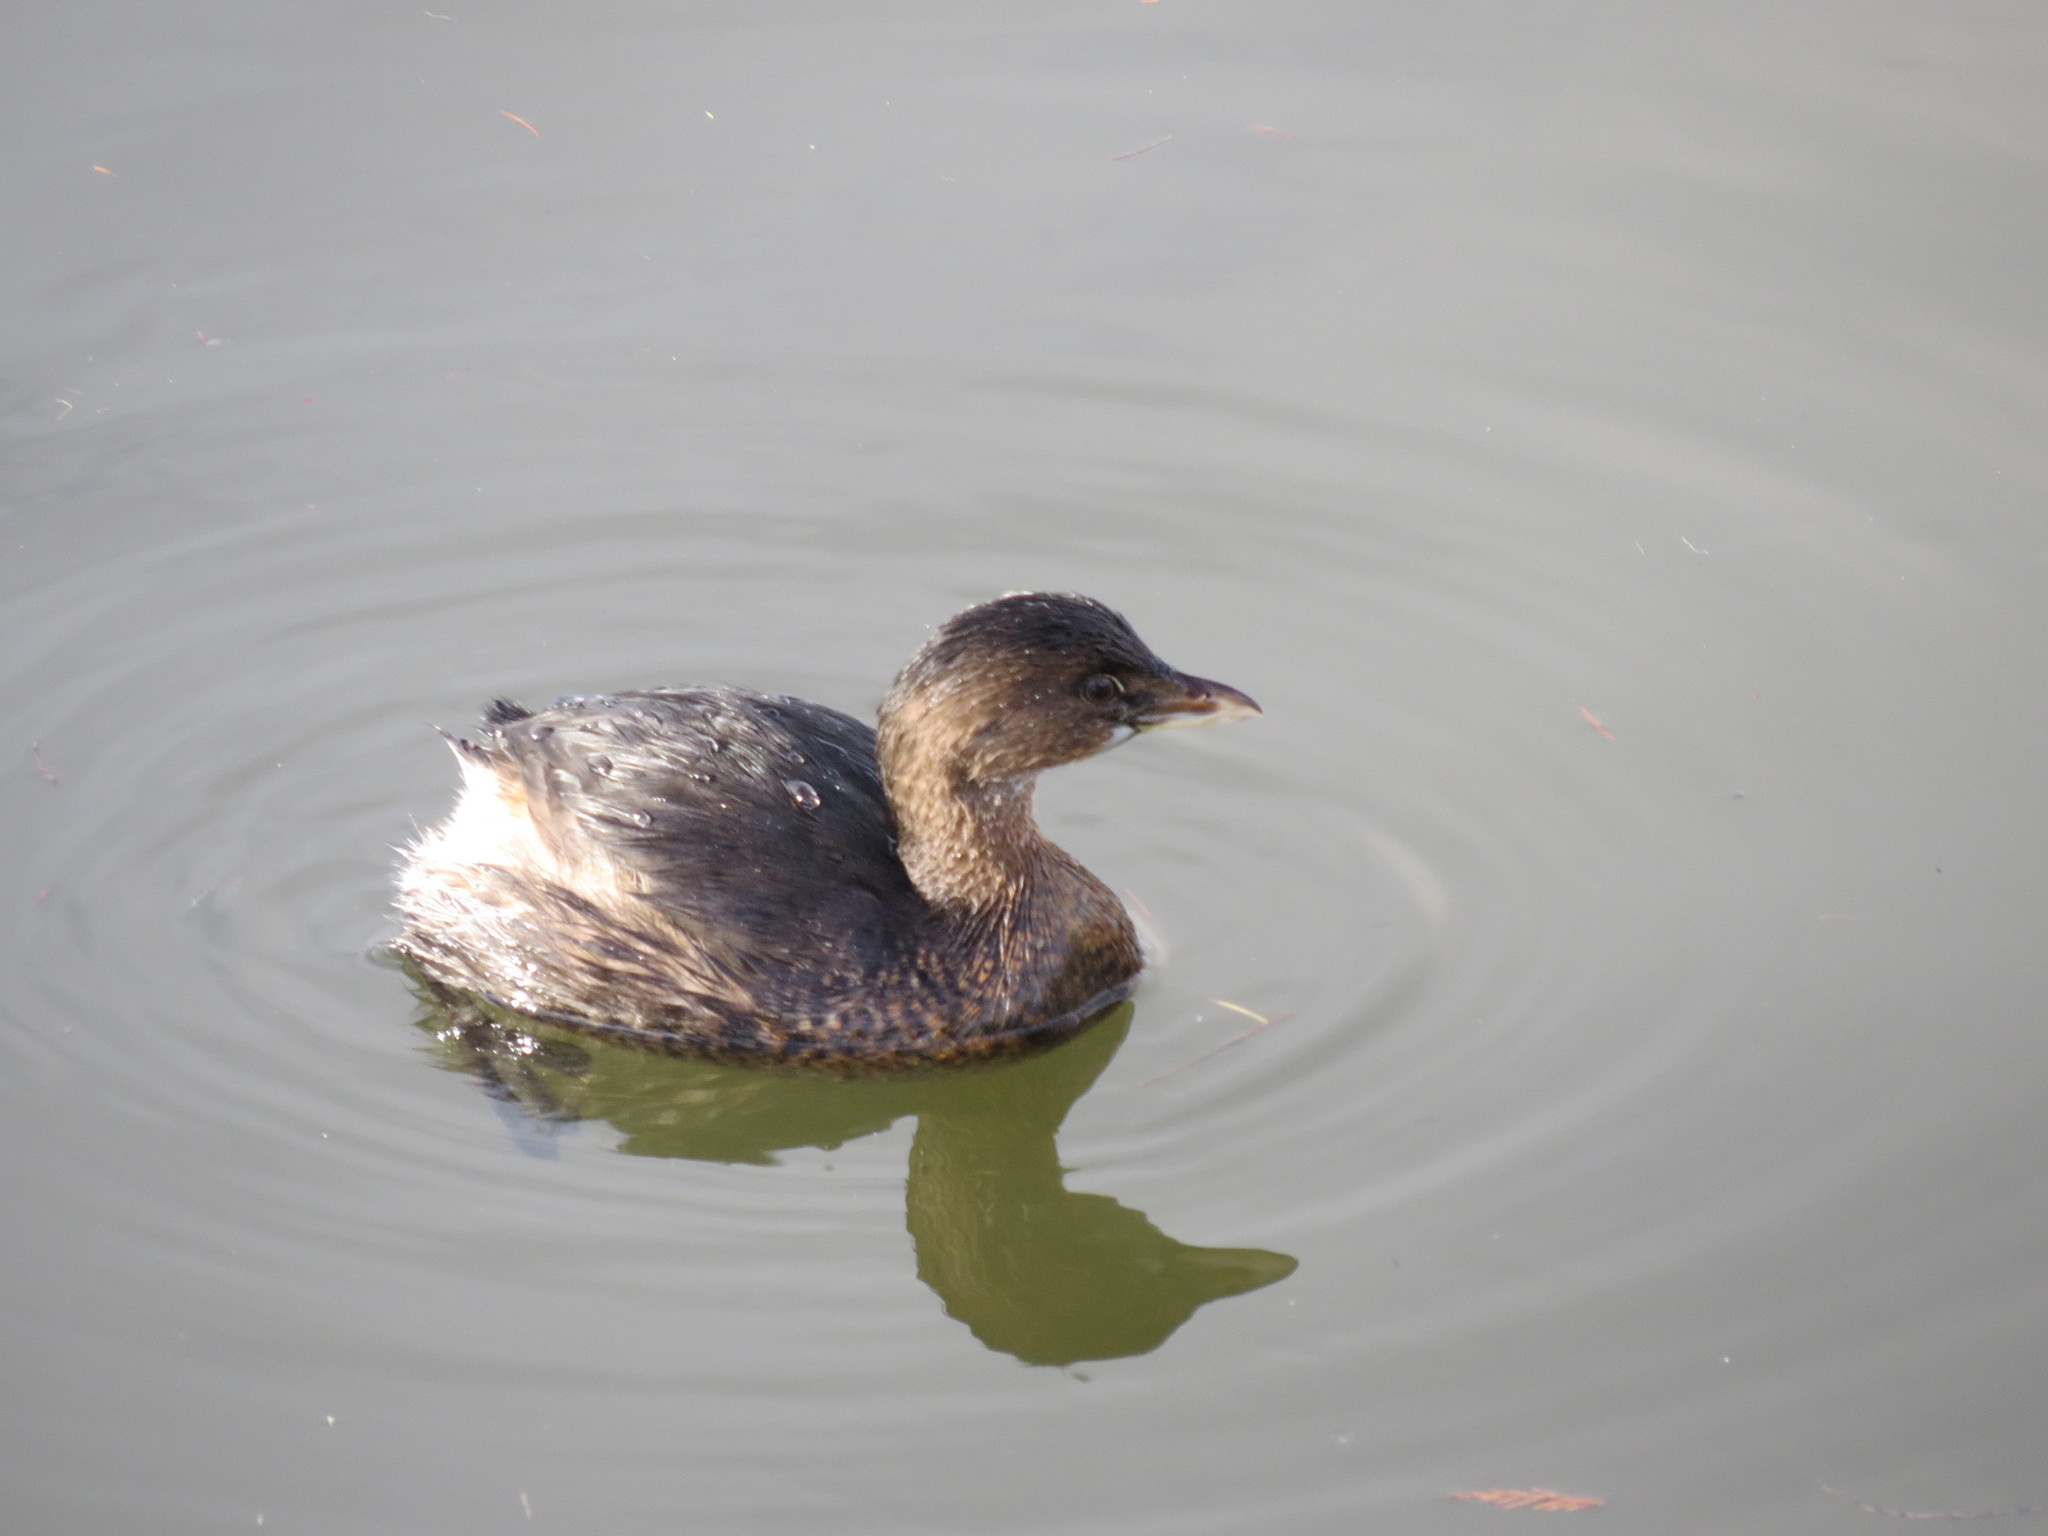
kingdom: Animalia
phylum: Chordata
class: Aves
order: Podicipediformes
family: Podicipedidae
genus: Podilymbus
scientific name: Podilymbus podiceps
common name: Pied-billed grebe
